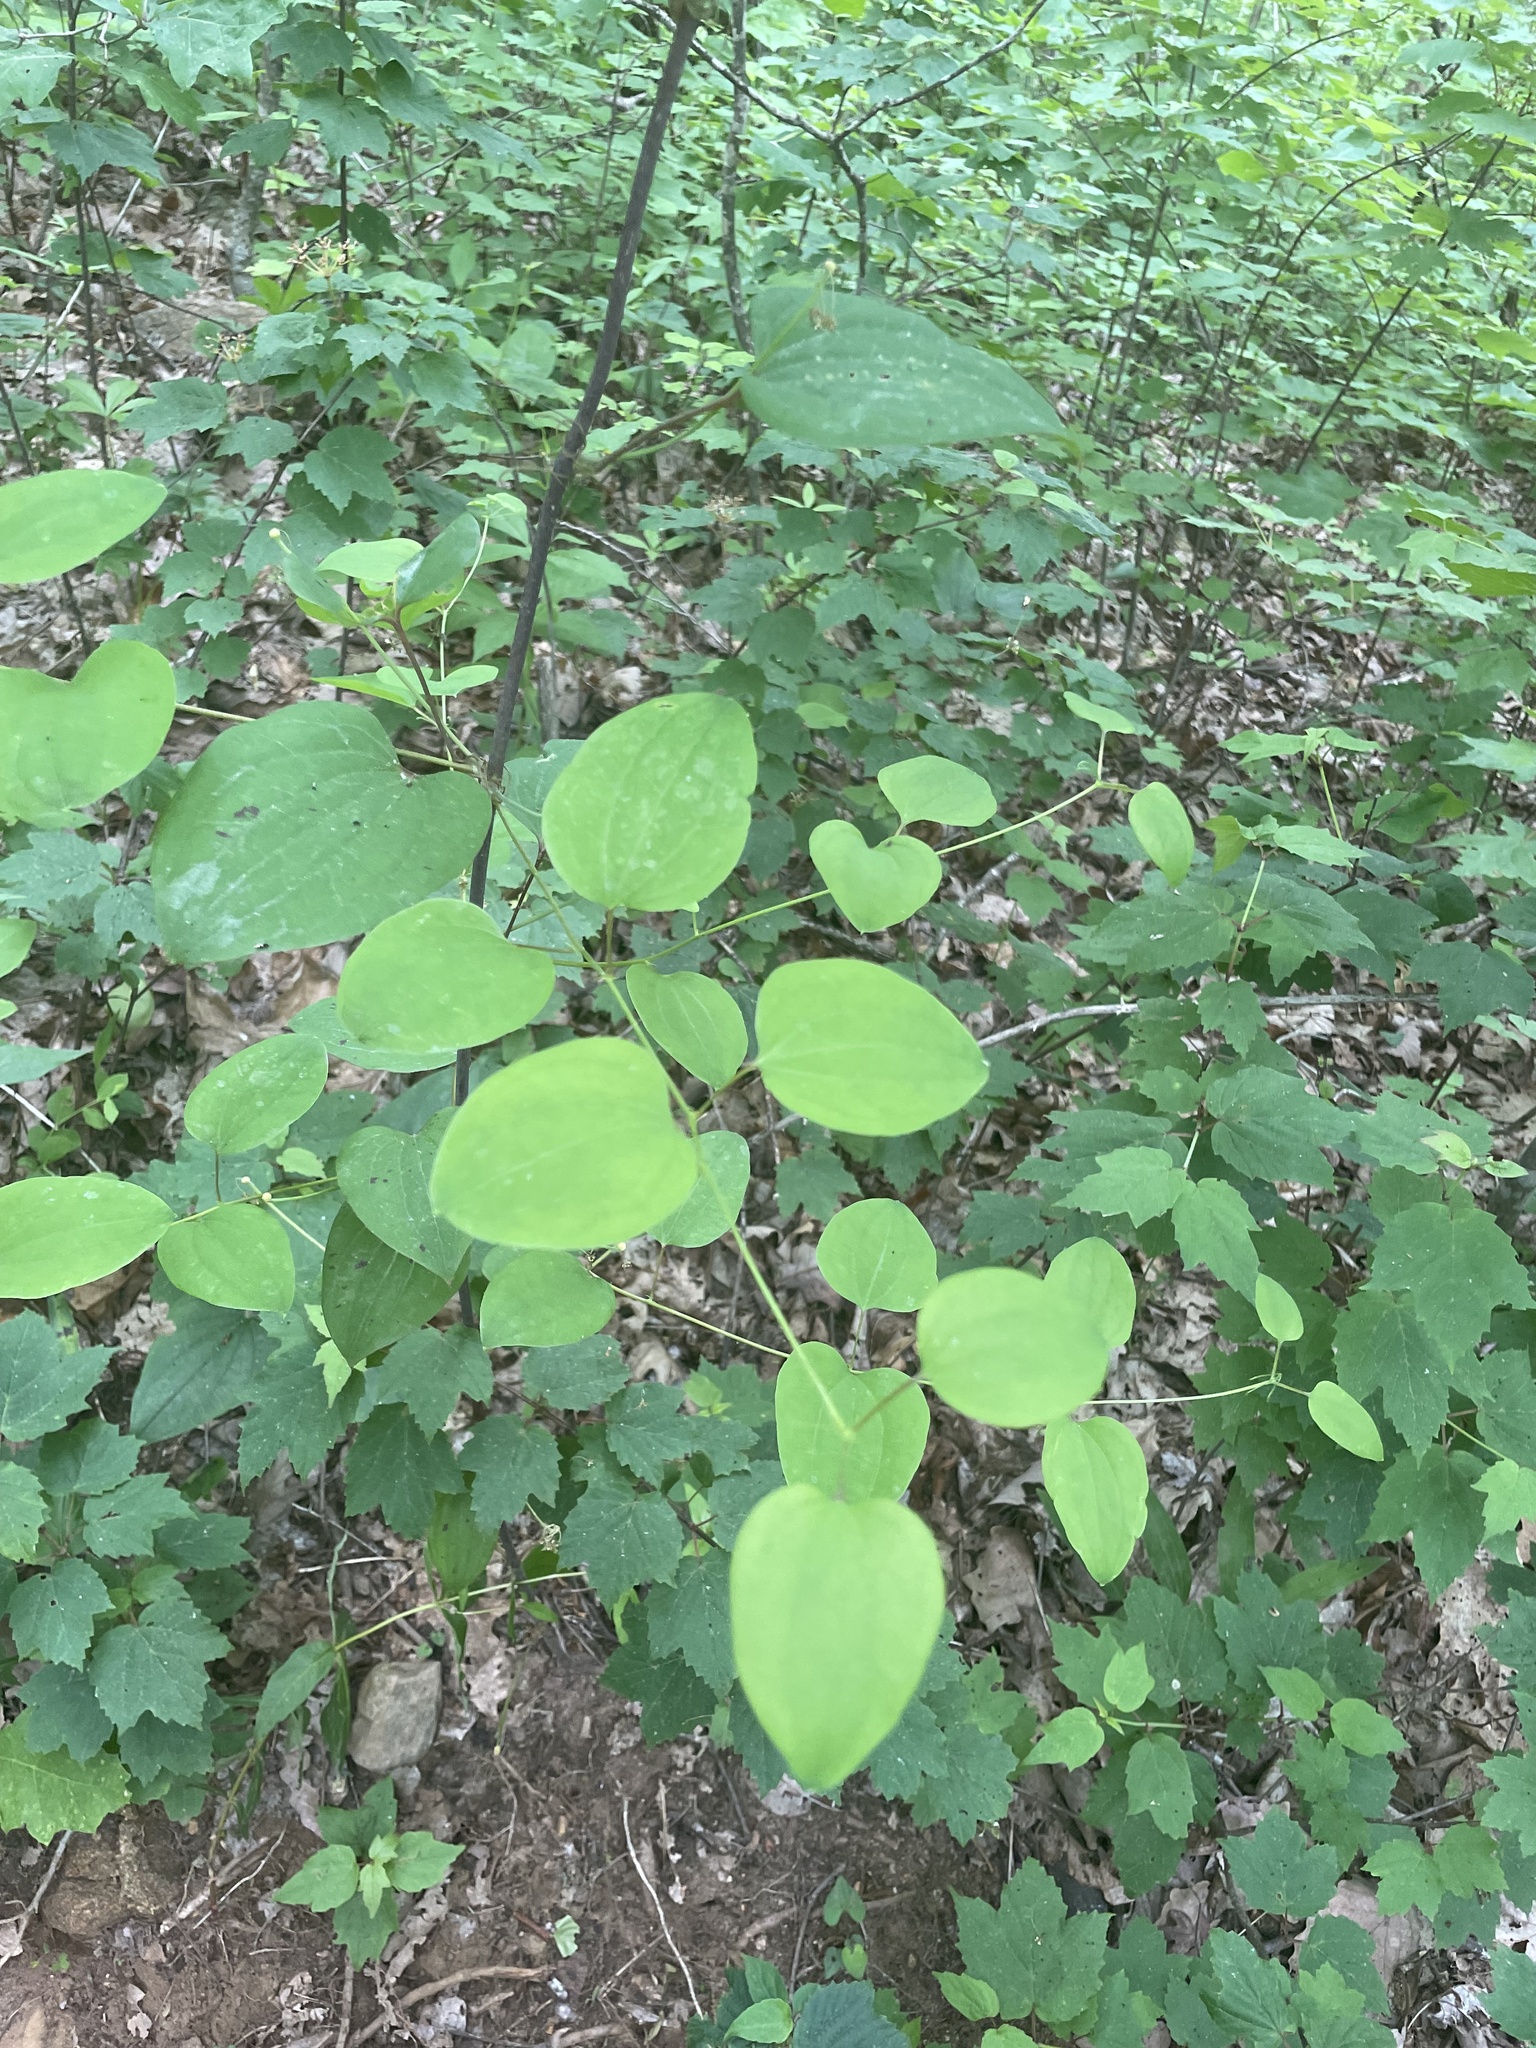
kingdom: Plantae
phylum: Tracheophyta
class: Liliopsida
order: Liliales
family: Smilacaceae
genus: Smilax
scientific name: Smilax herbacea
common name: Jacob's-ladder
